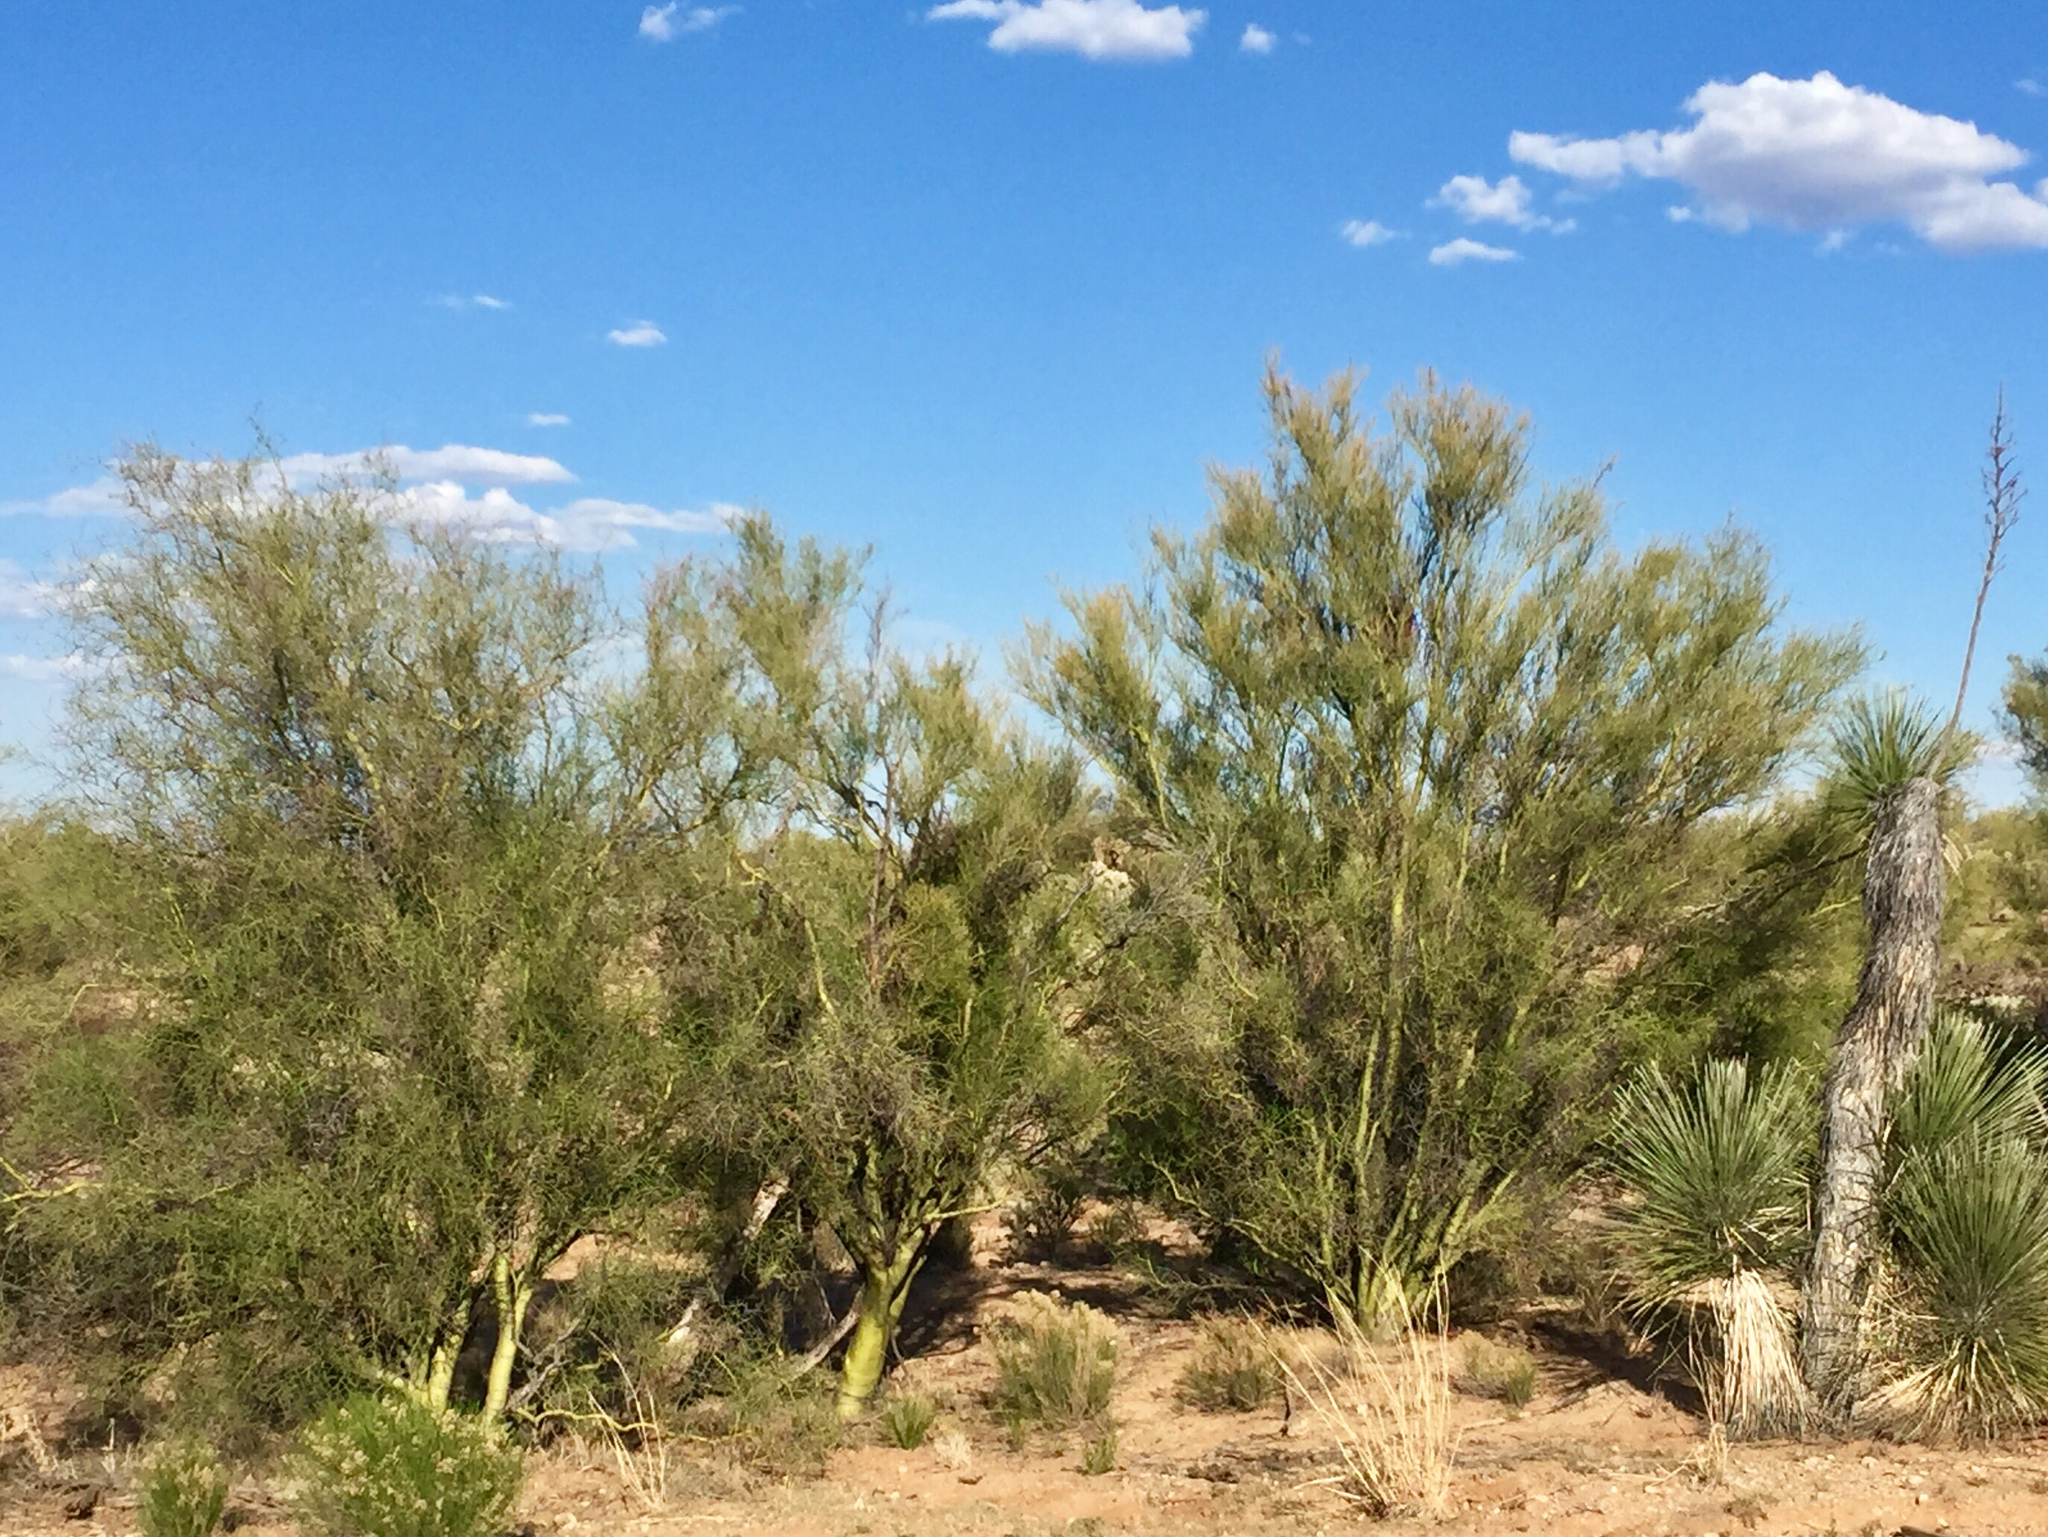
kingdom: Plantae
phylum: Tracheophyta
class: Magnoliopsida
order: Fabales
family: Fabaceae
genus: Parkinsonia
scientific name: Parkinsonia microphylla
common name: Yellow paloverde
